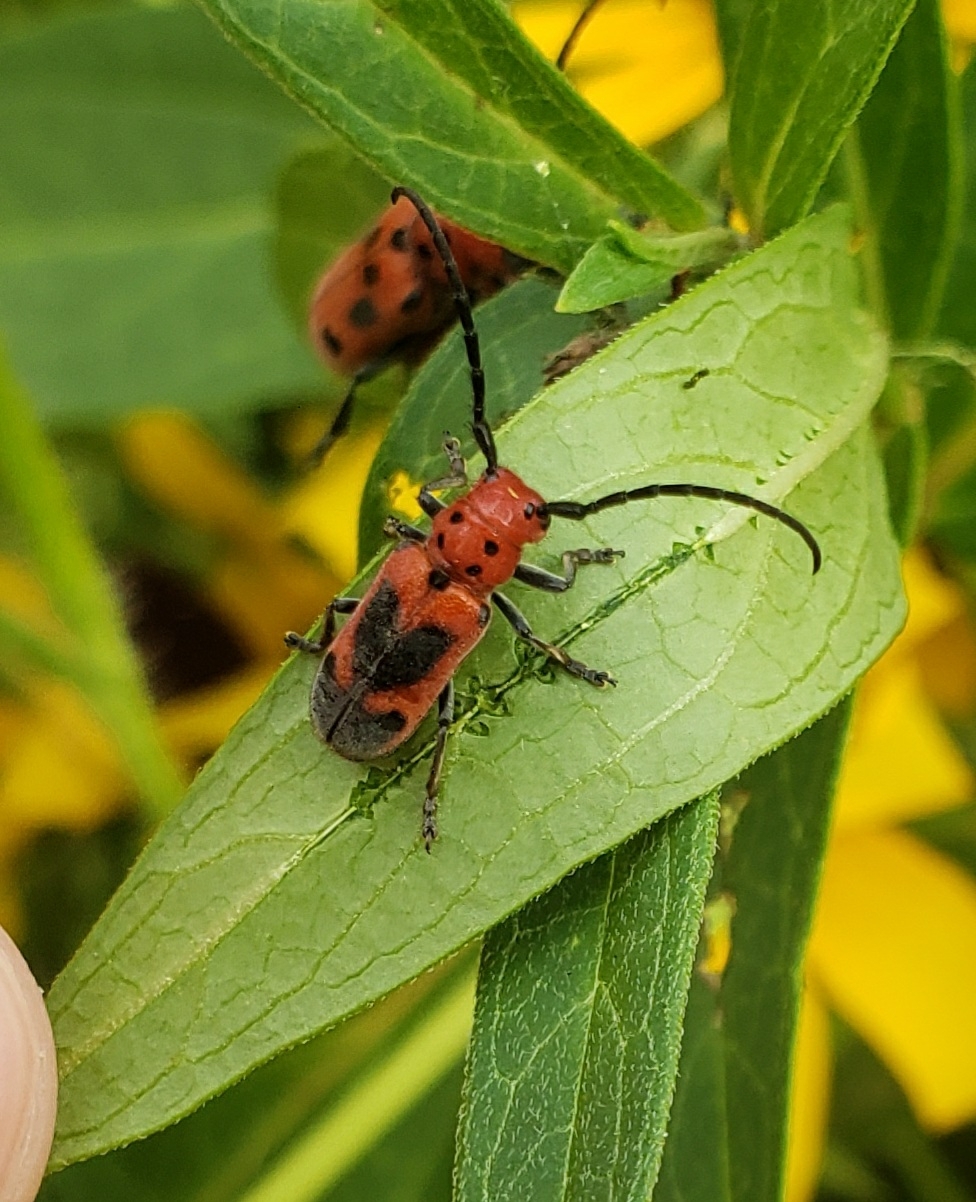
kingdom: Animalia
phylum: Arthropoda
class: Insecta
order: Coleoptera
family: Cerambycidae
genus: Tetraopes
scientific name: Tetraopes melanurus
